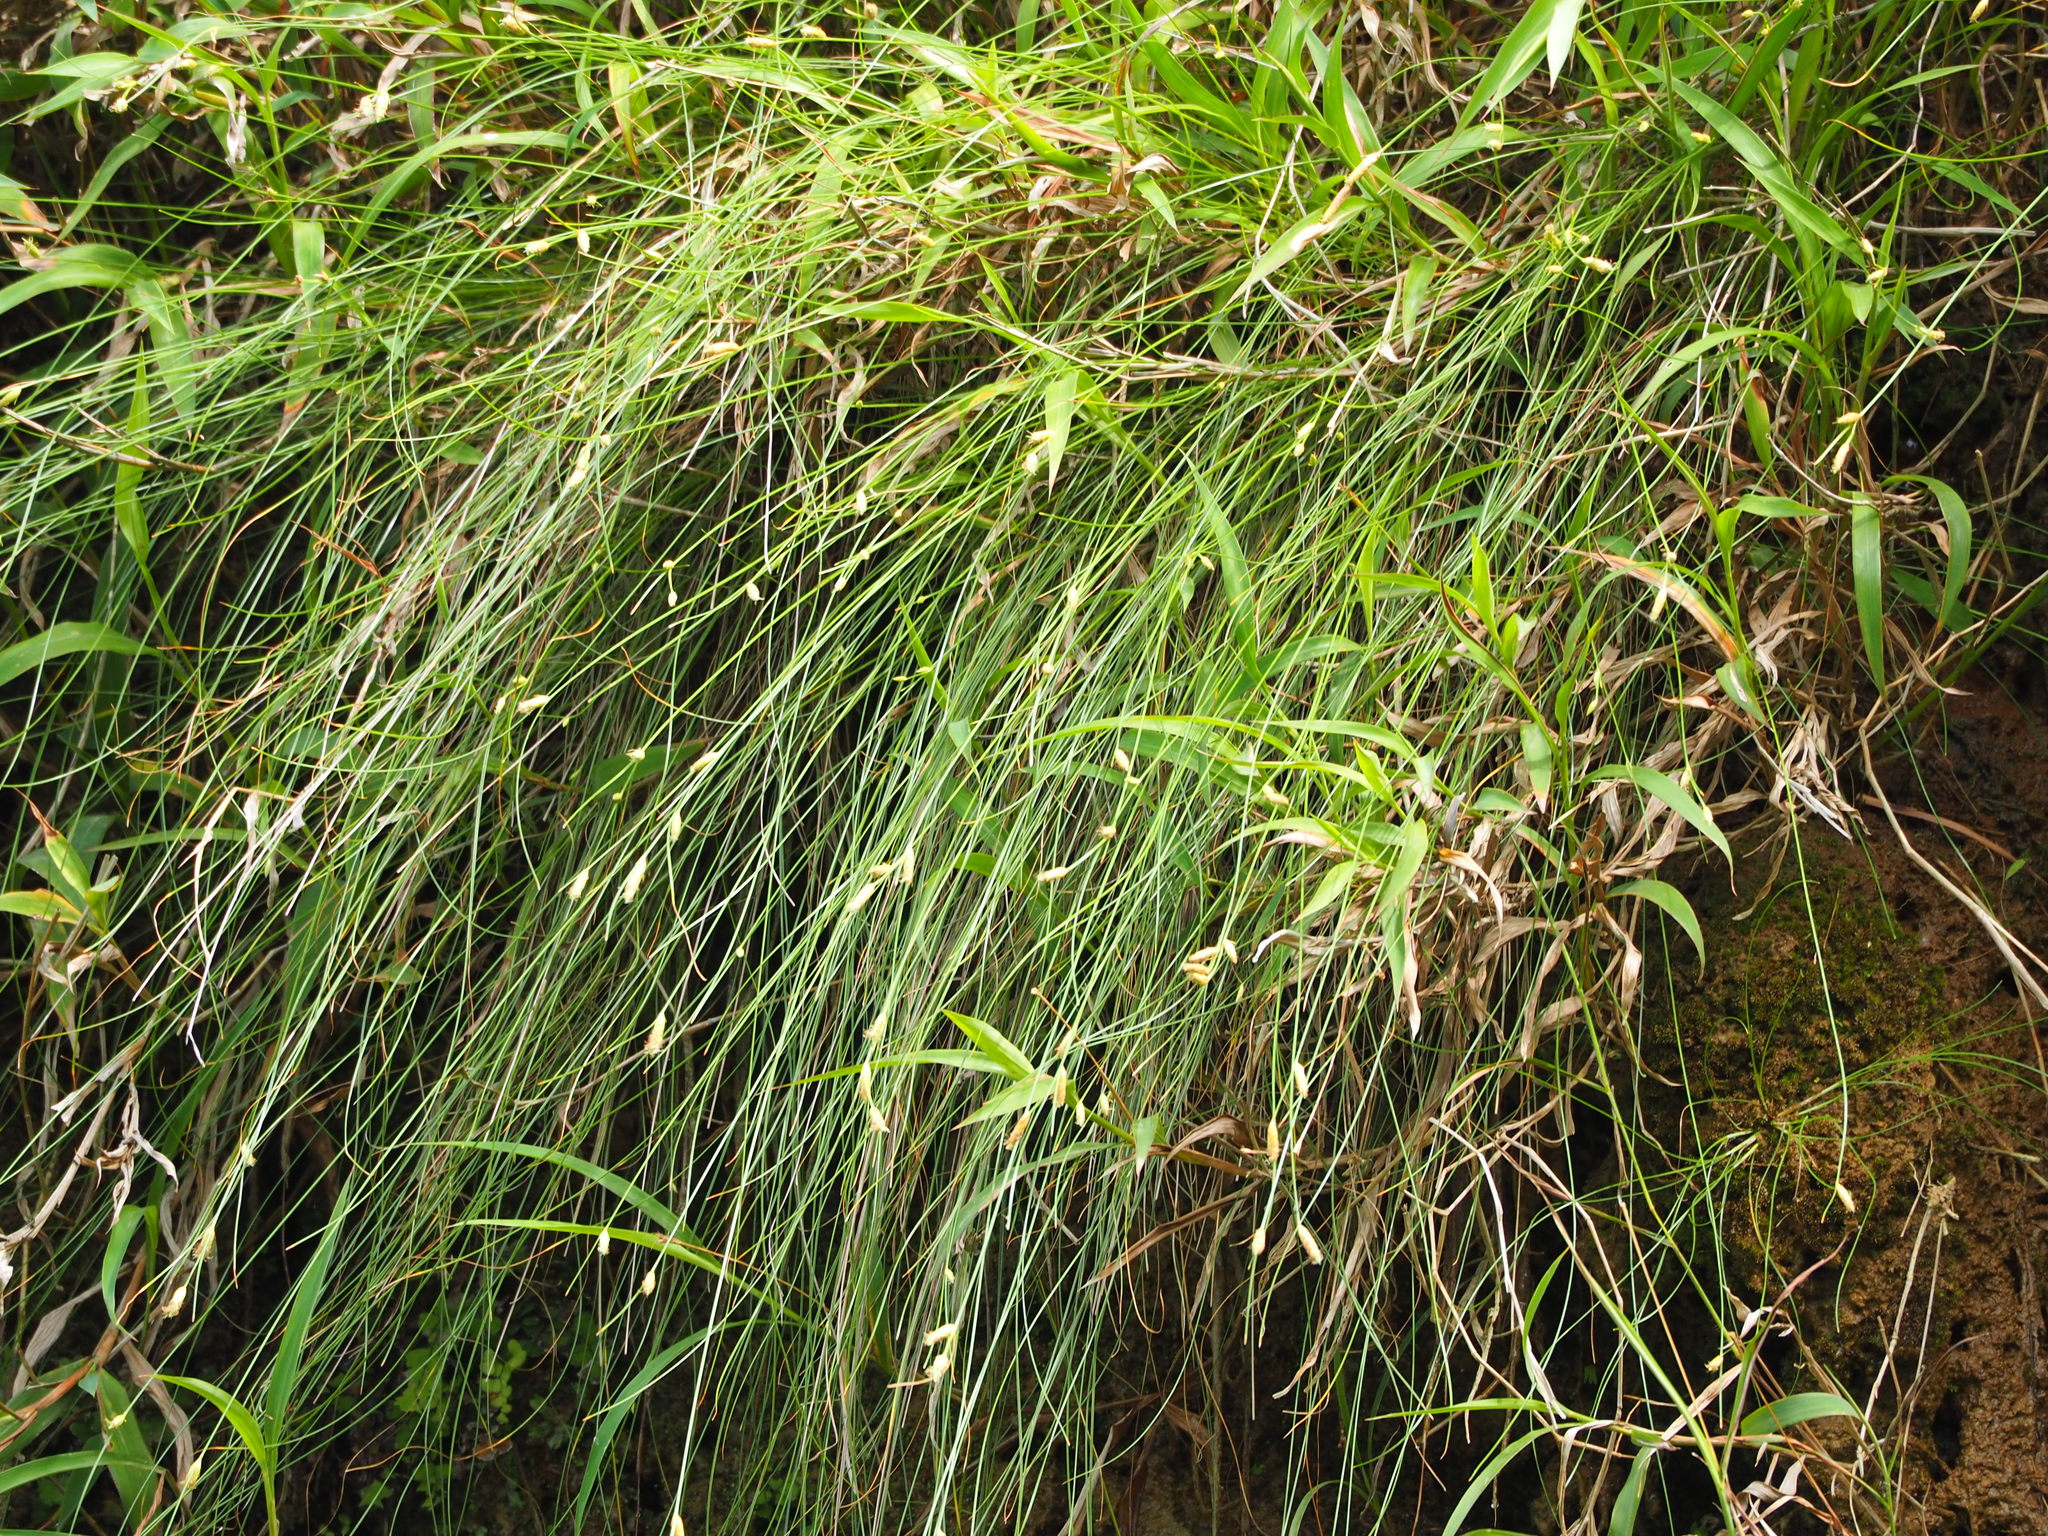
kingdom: Plantae
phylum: Tracheophyta
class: Liliopsida
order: Poales
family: Cyperaceae
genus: Fimbristylis
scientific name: Fimbristylis tristachya
